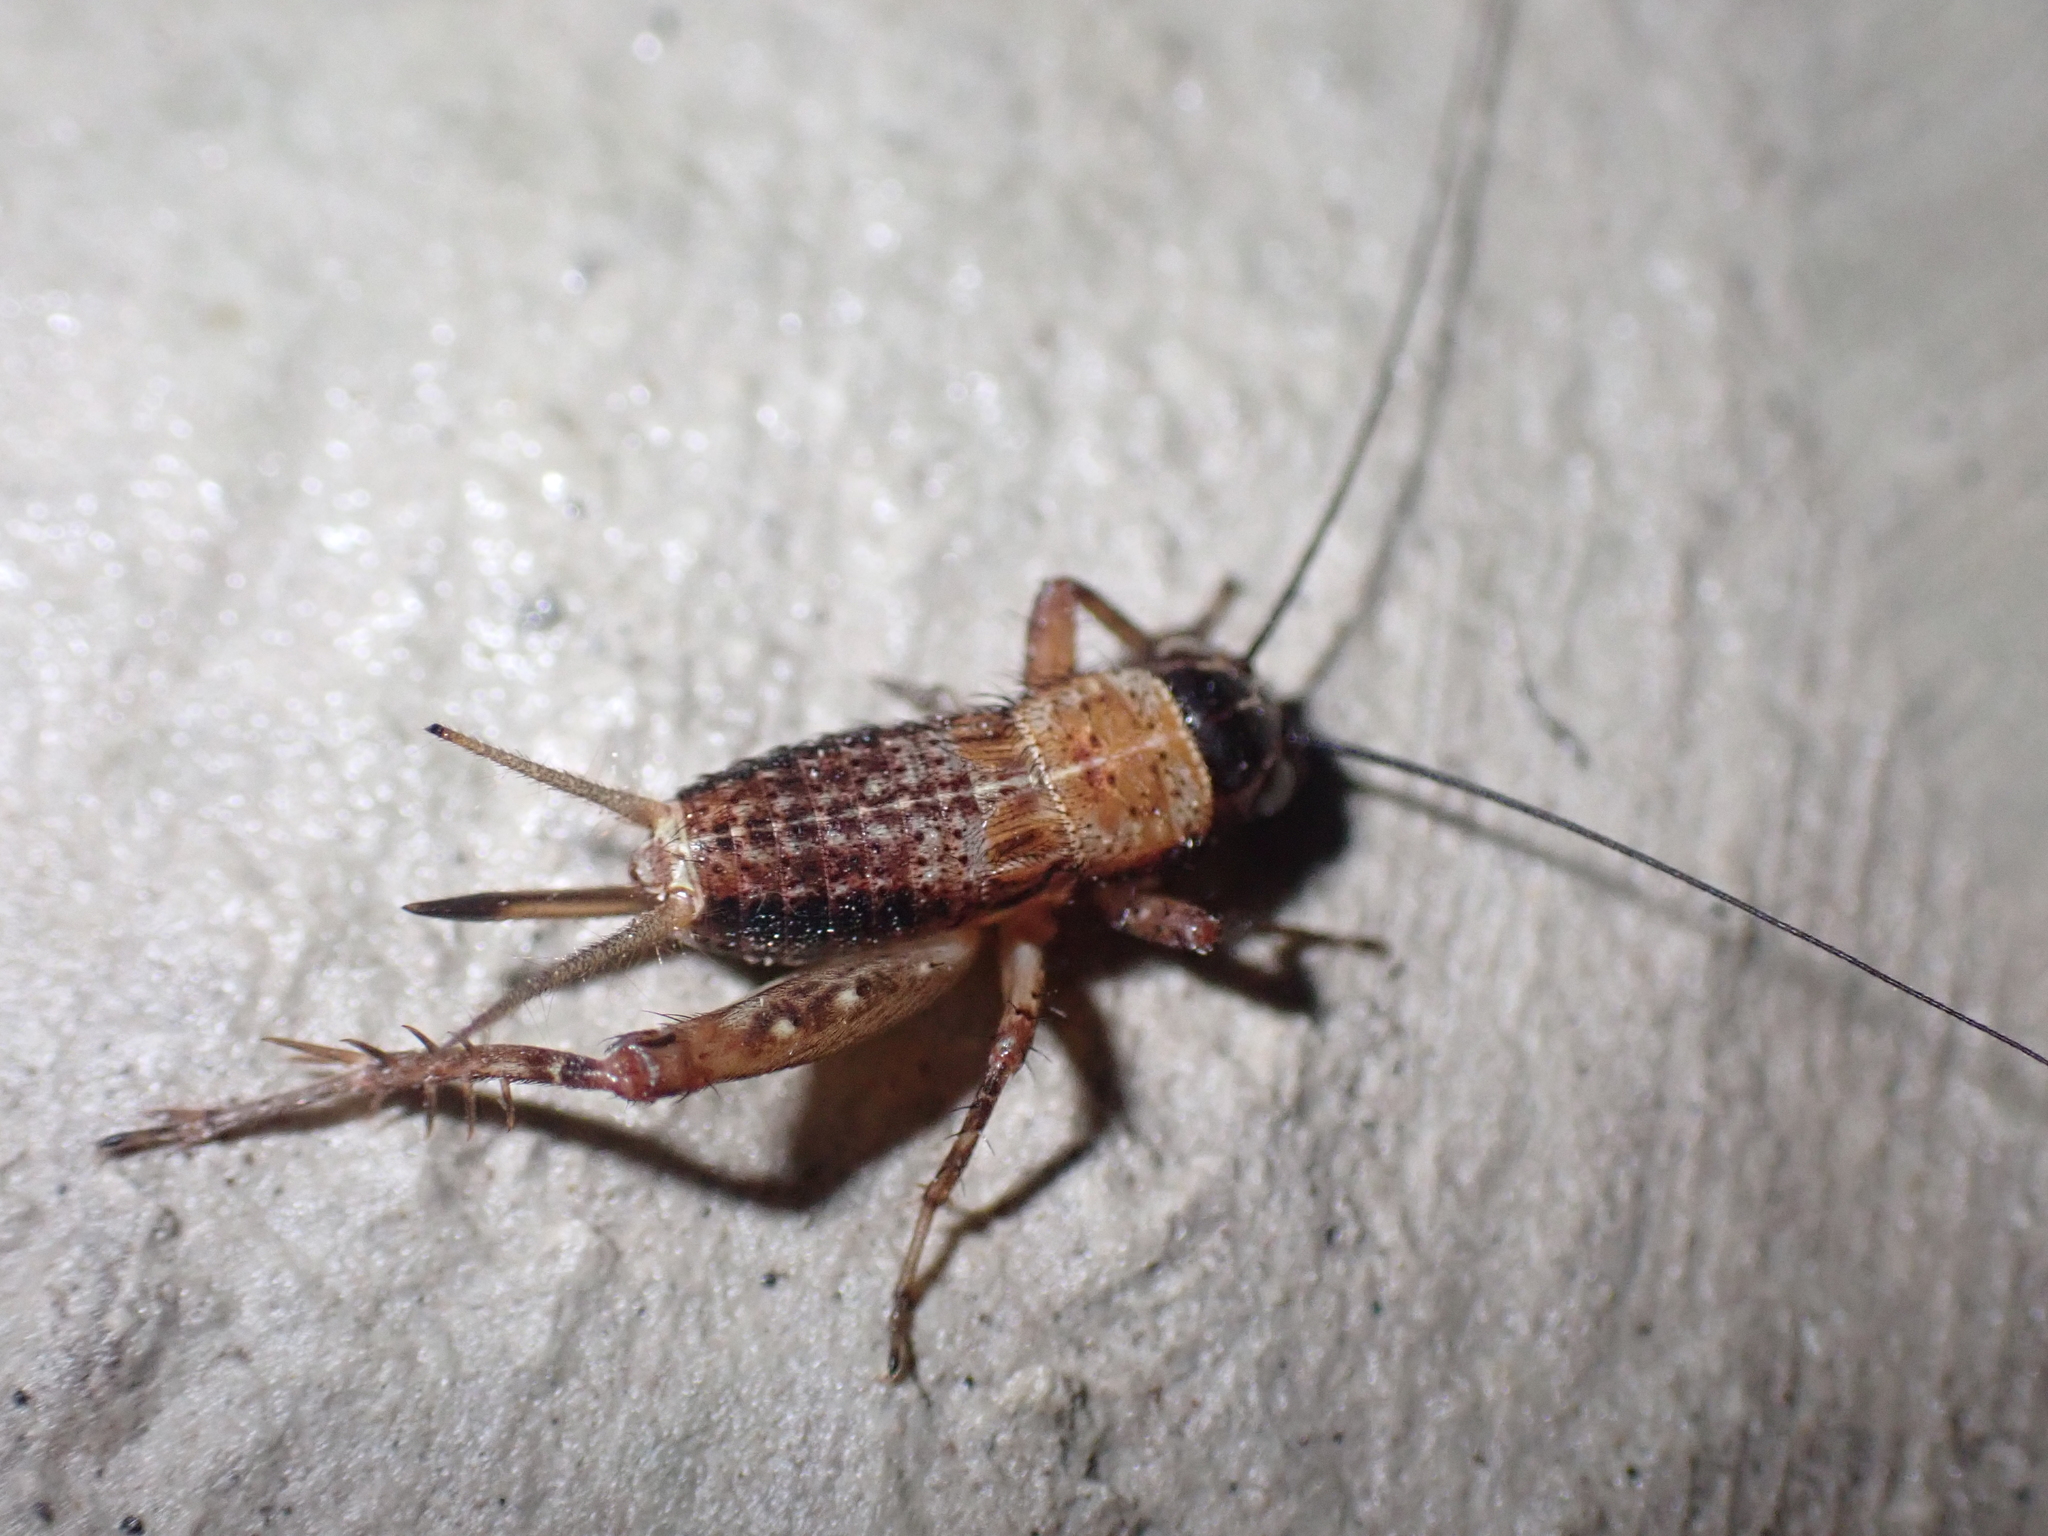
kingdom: Animalia
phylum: Arthropoda
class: Insecta
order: Orthoptera
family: Trigonidiidae
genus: Nemobius
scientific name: Nemobius sylvestris
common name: Wood-cricket
